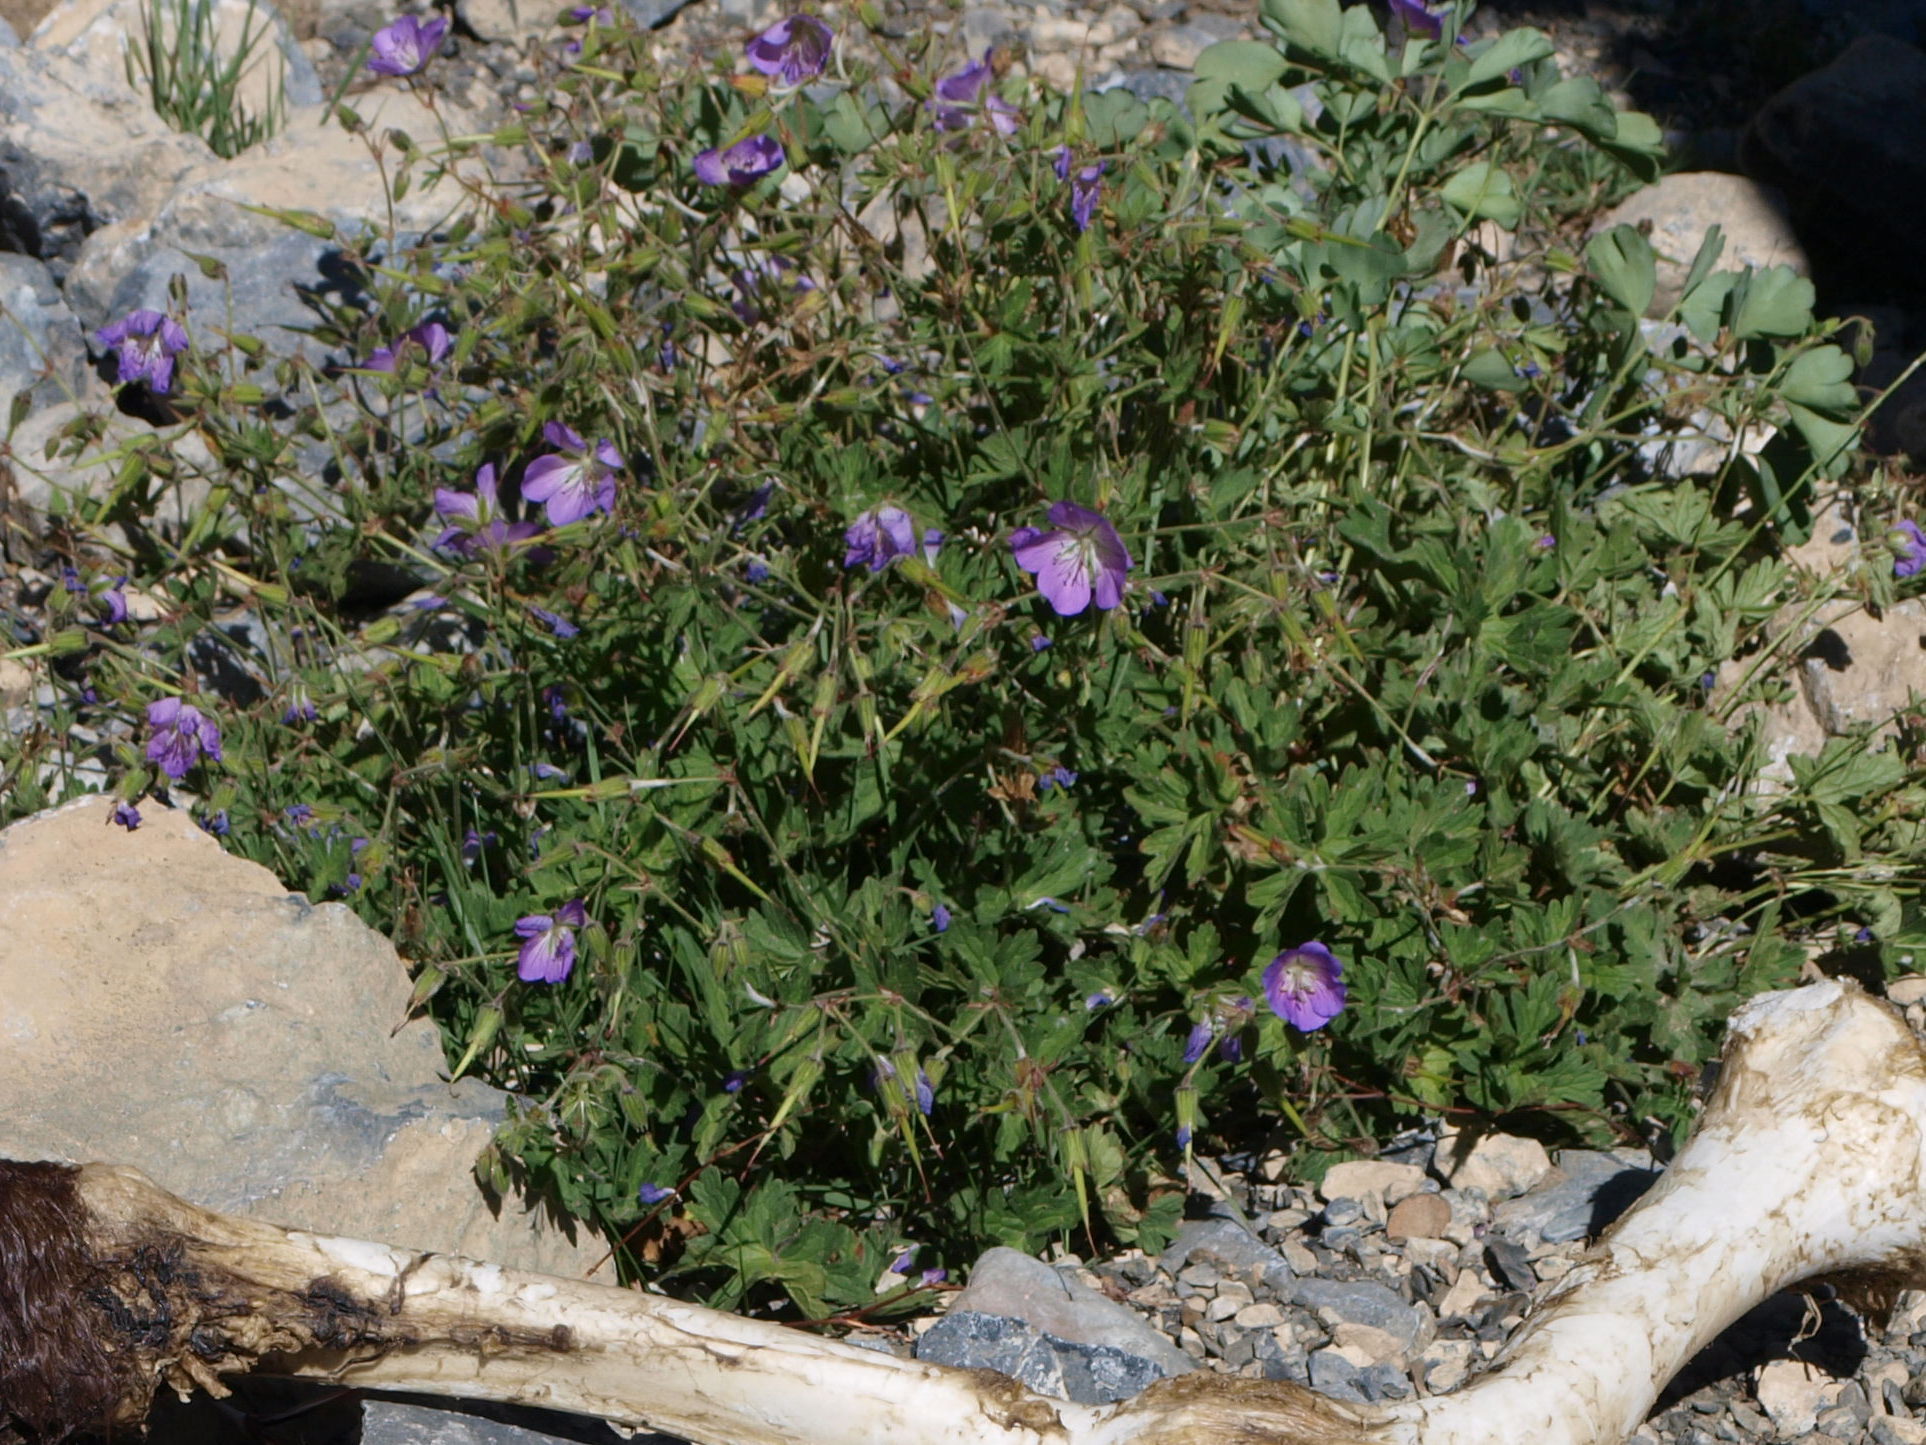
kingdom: Plantae
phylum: Tracheophyta
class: Magnoliopsida
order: Geraniales
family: Geraniaceae
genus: Geranium
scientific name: Geranium himalayense
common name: Himalayan crane's-bill
